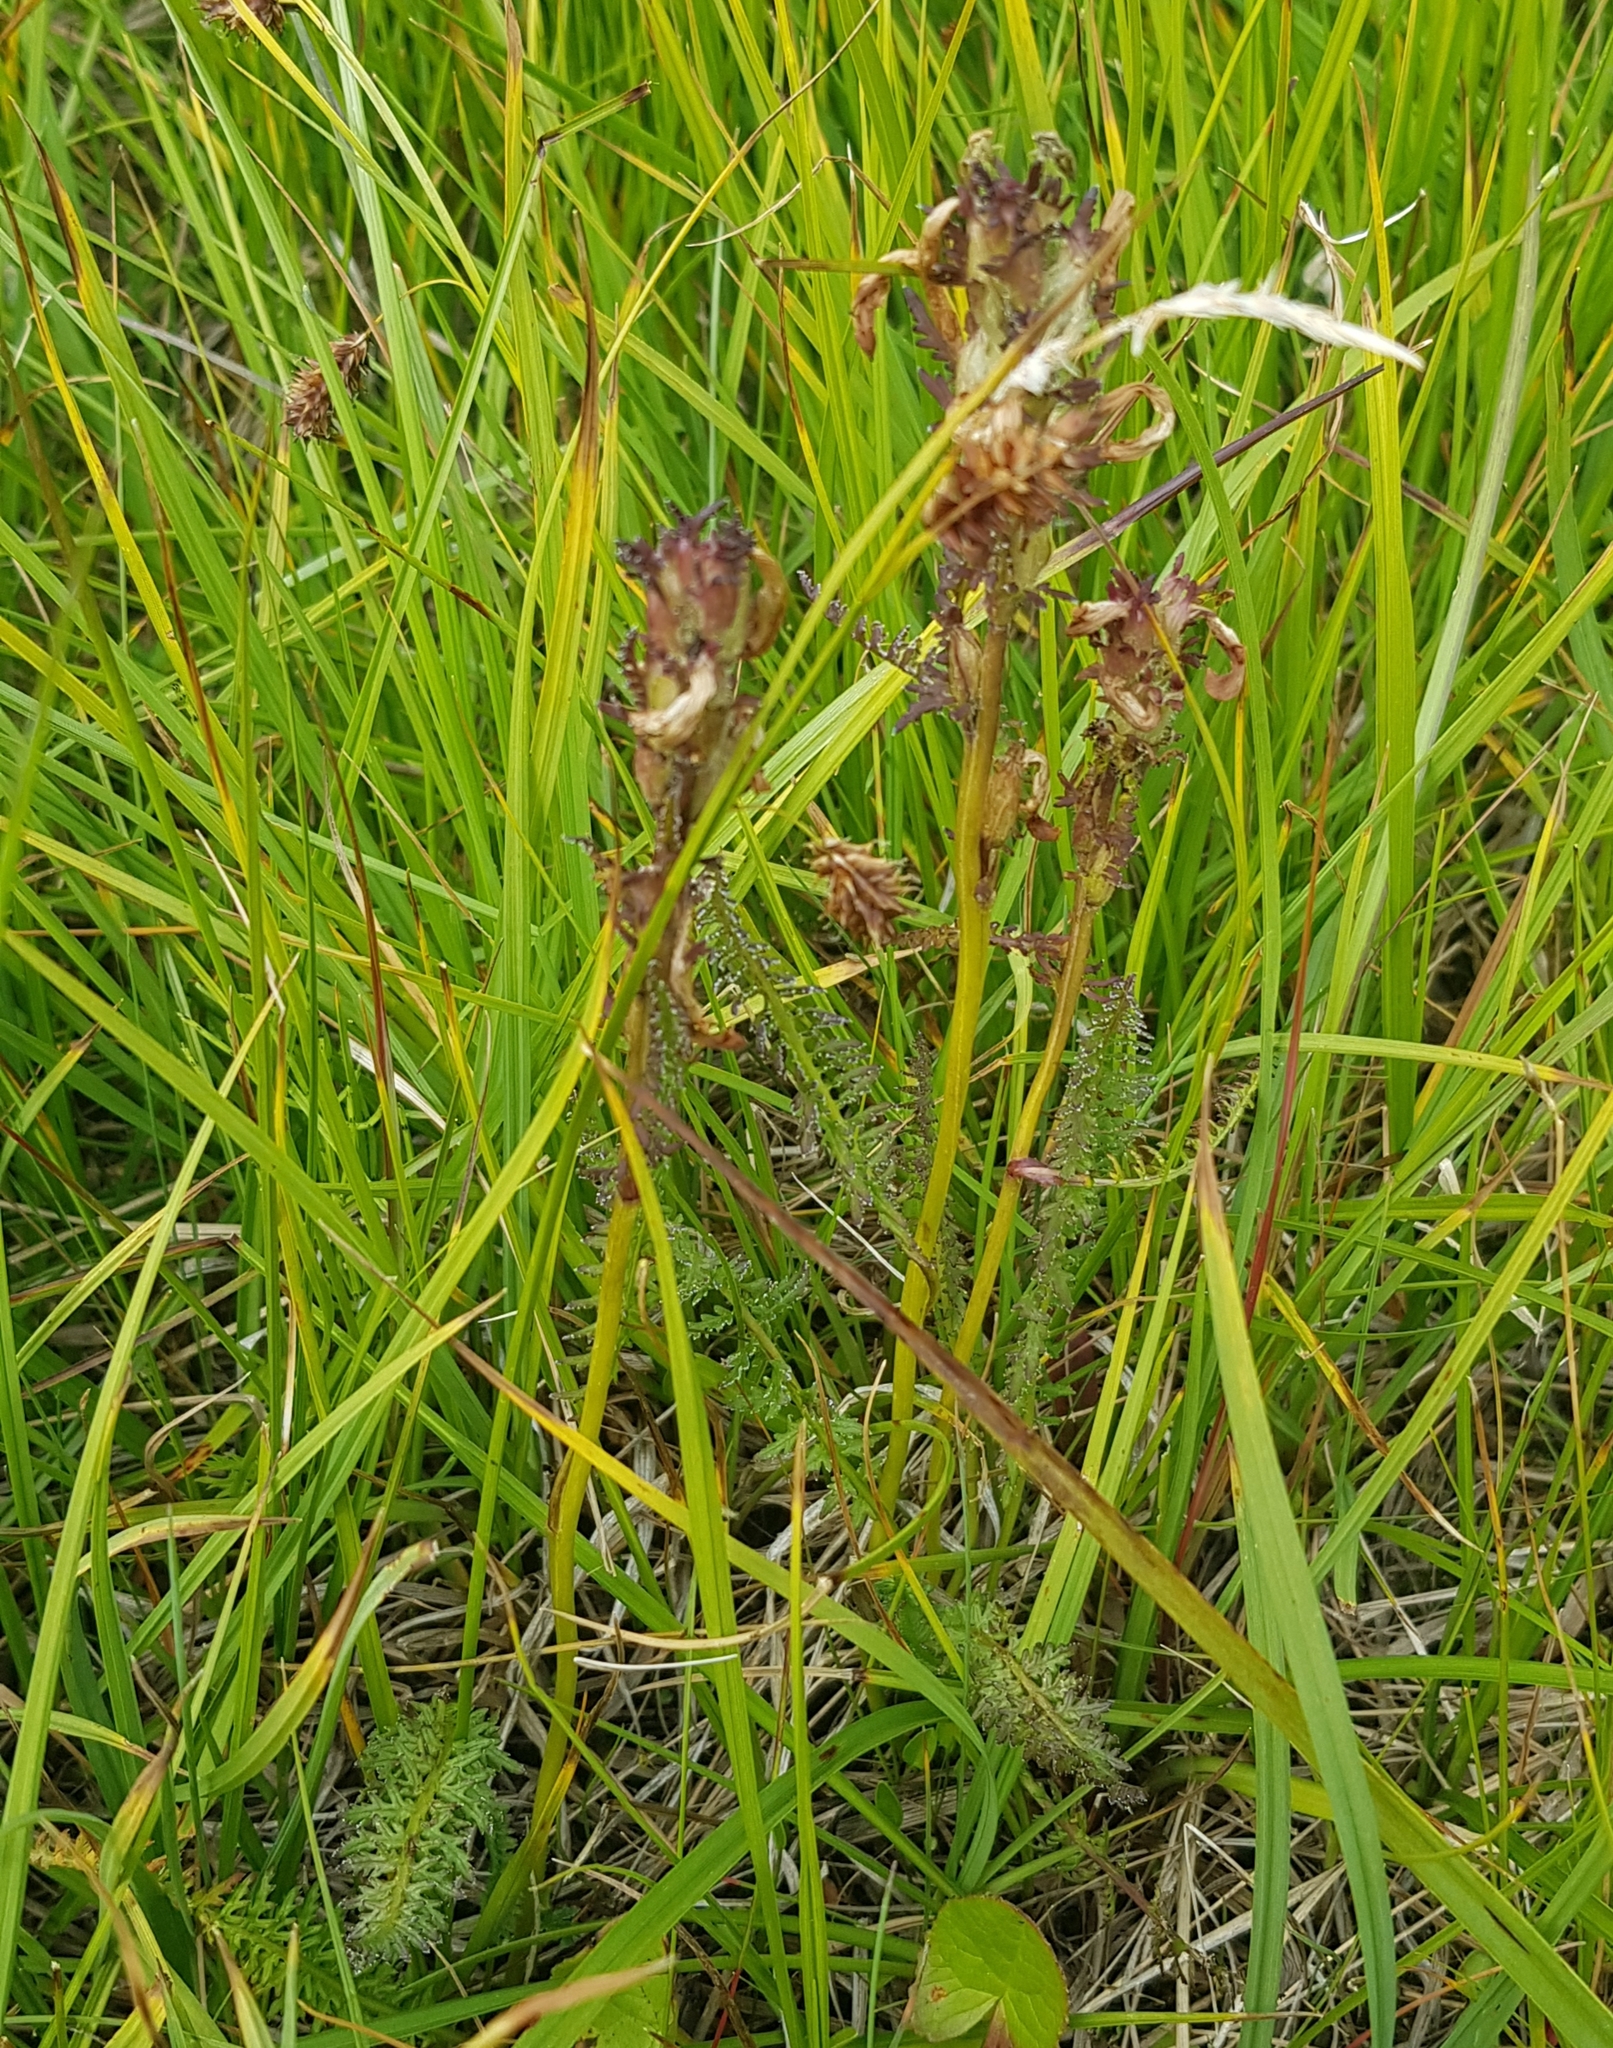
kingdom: Plantae
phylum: Tracheophyta
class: Magnoliopsida
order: Lamiales
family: Orobanchaceae
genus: Pedicularis
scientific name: Pedicularis uliginosa
